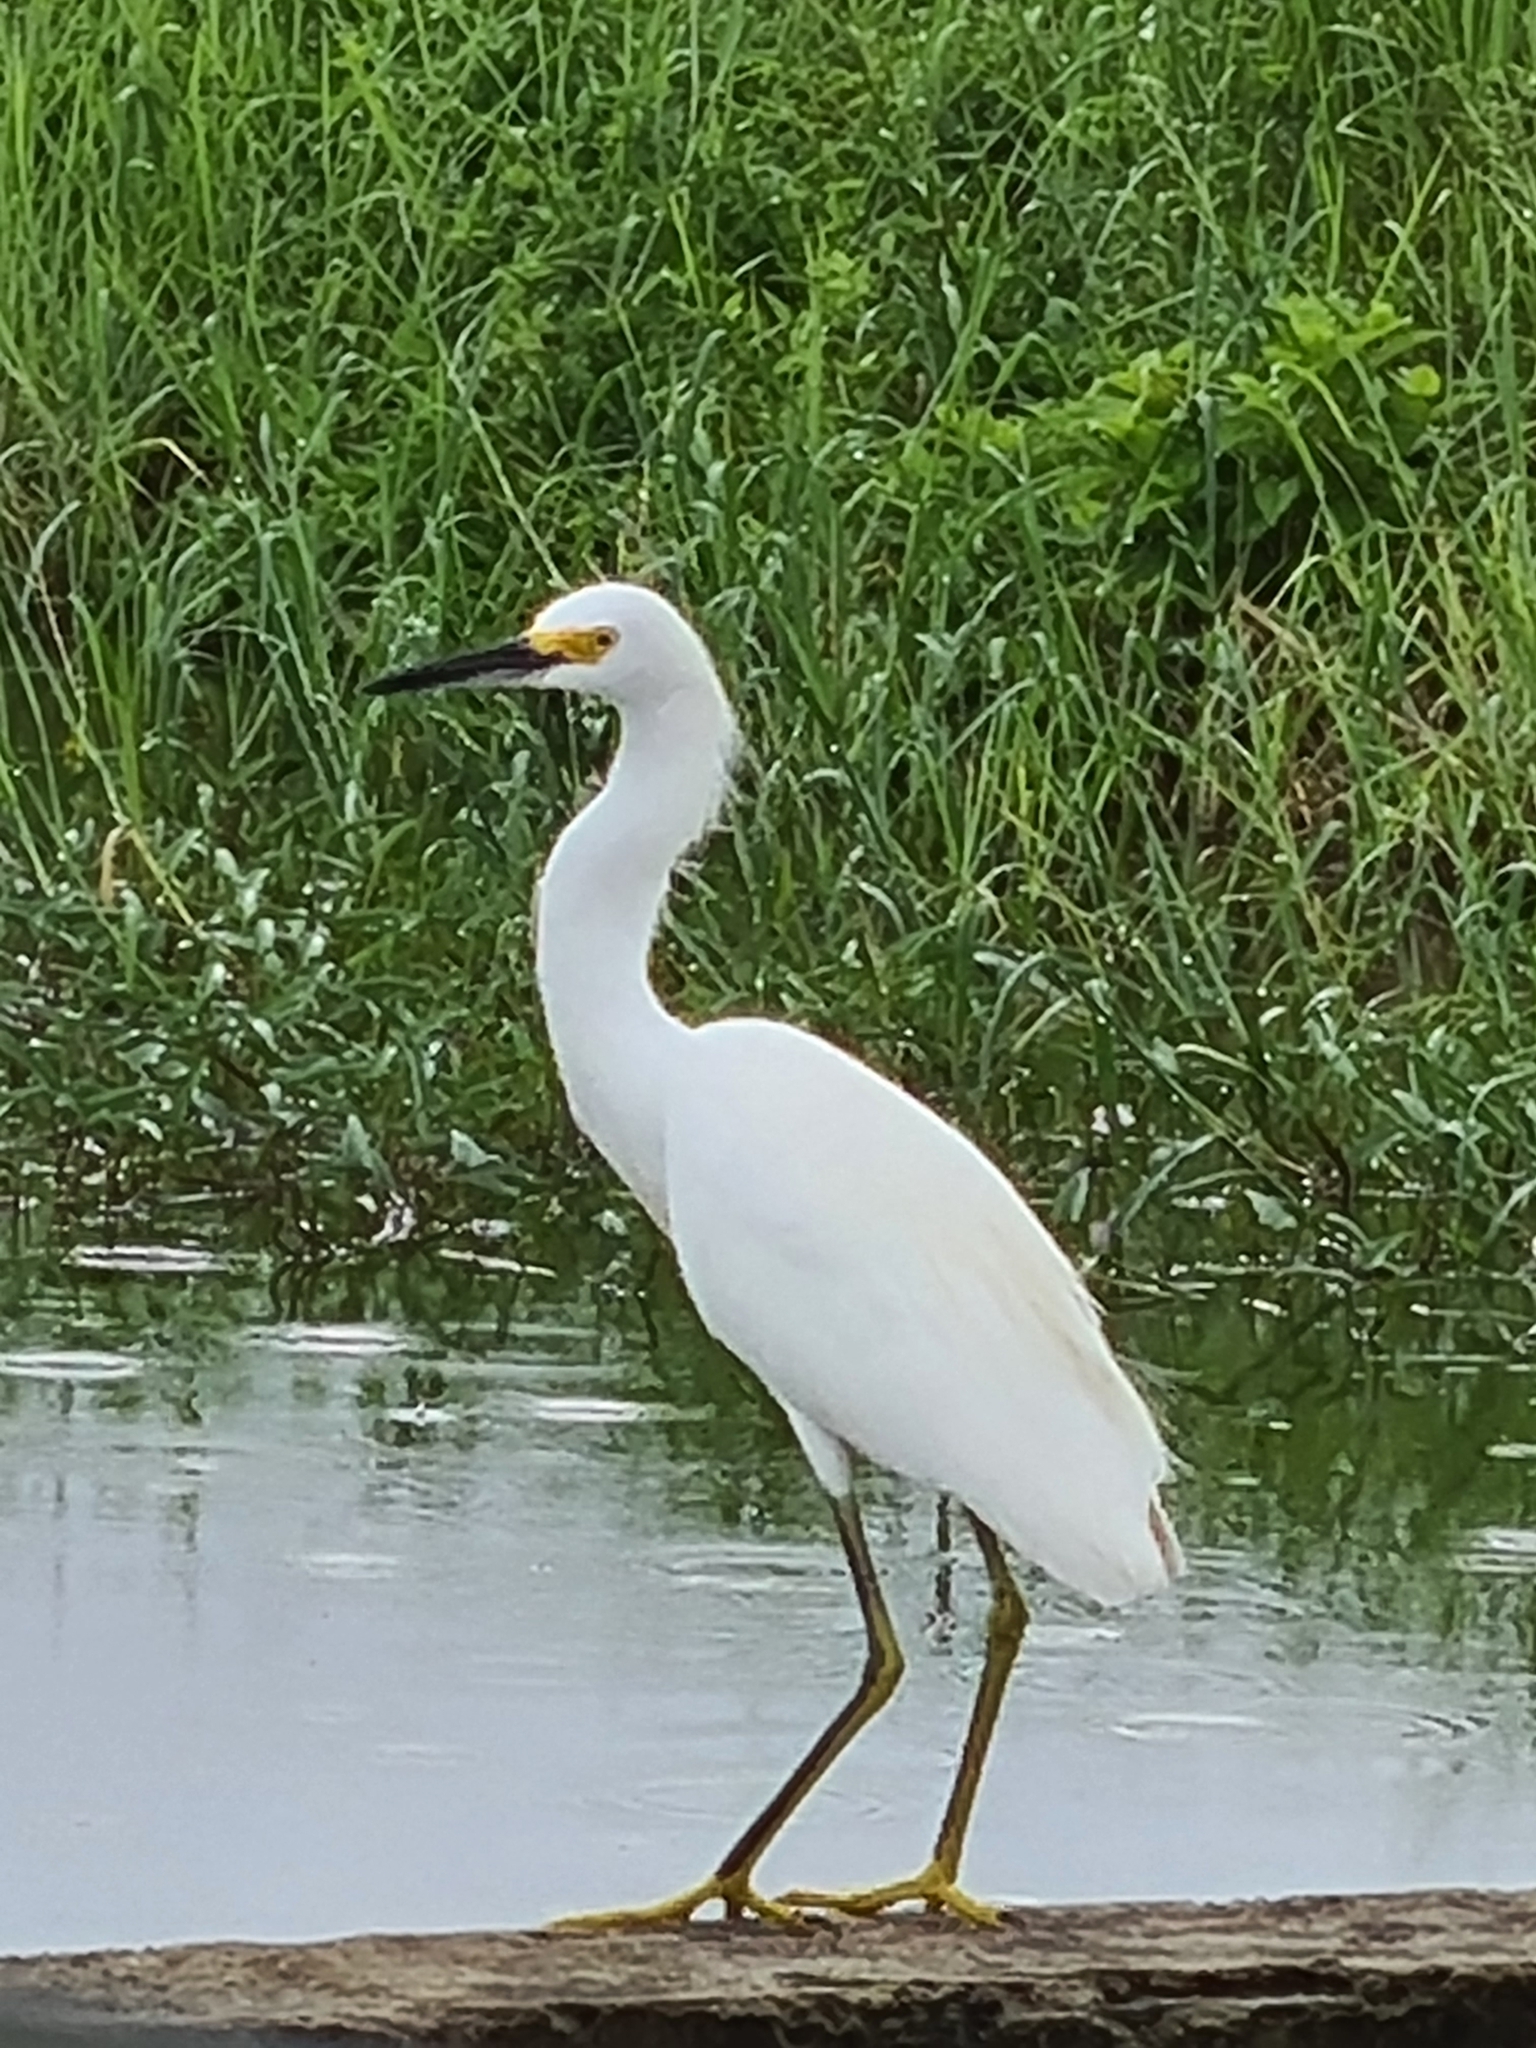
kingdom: Animalia
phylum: Chordata
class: Aves
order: Pelecaniformes
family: Ardeidae
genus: Egretta
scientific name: Egretta thula
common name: Snowy egret
